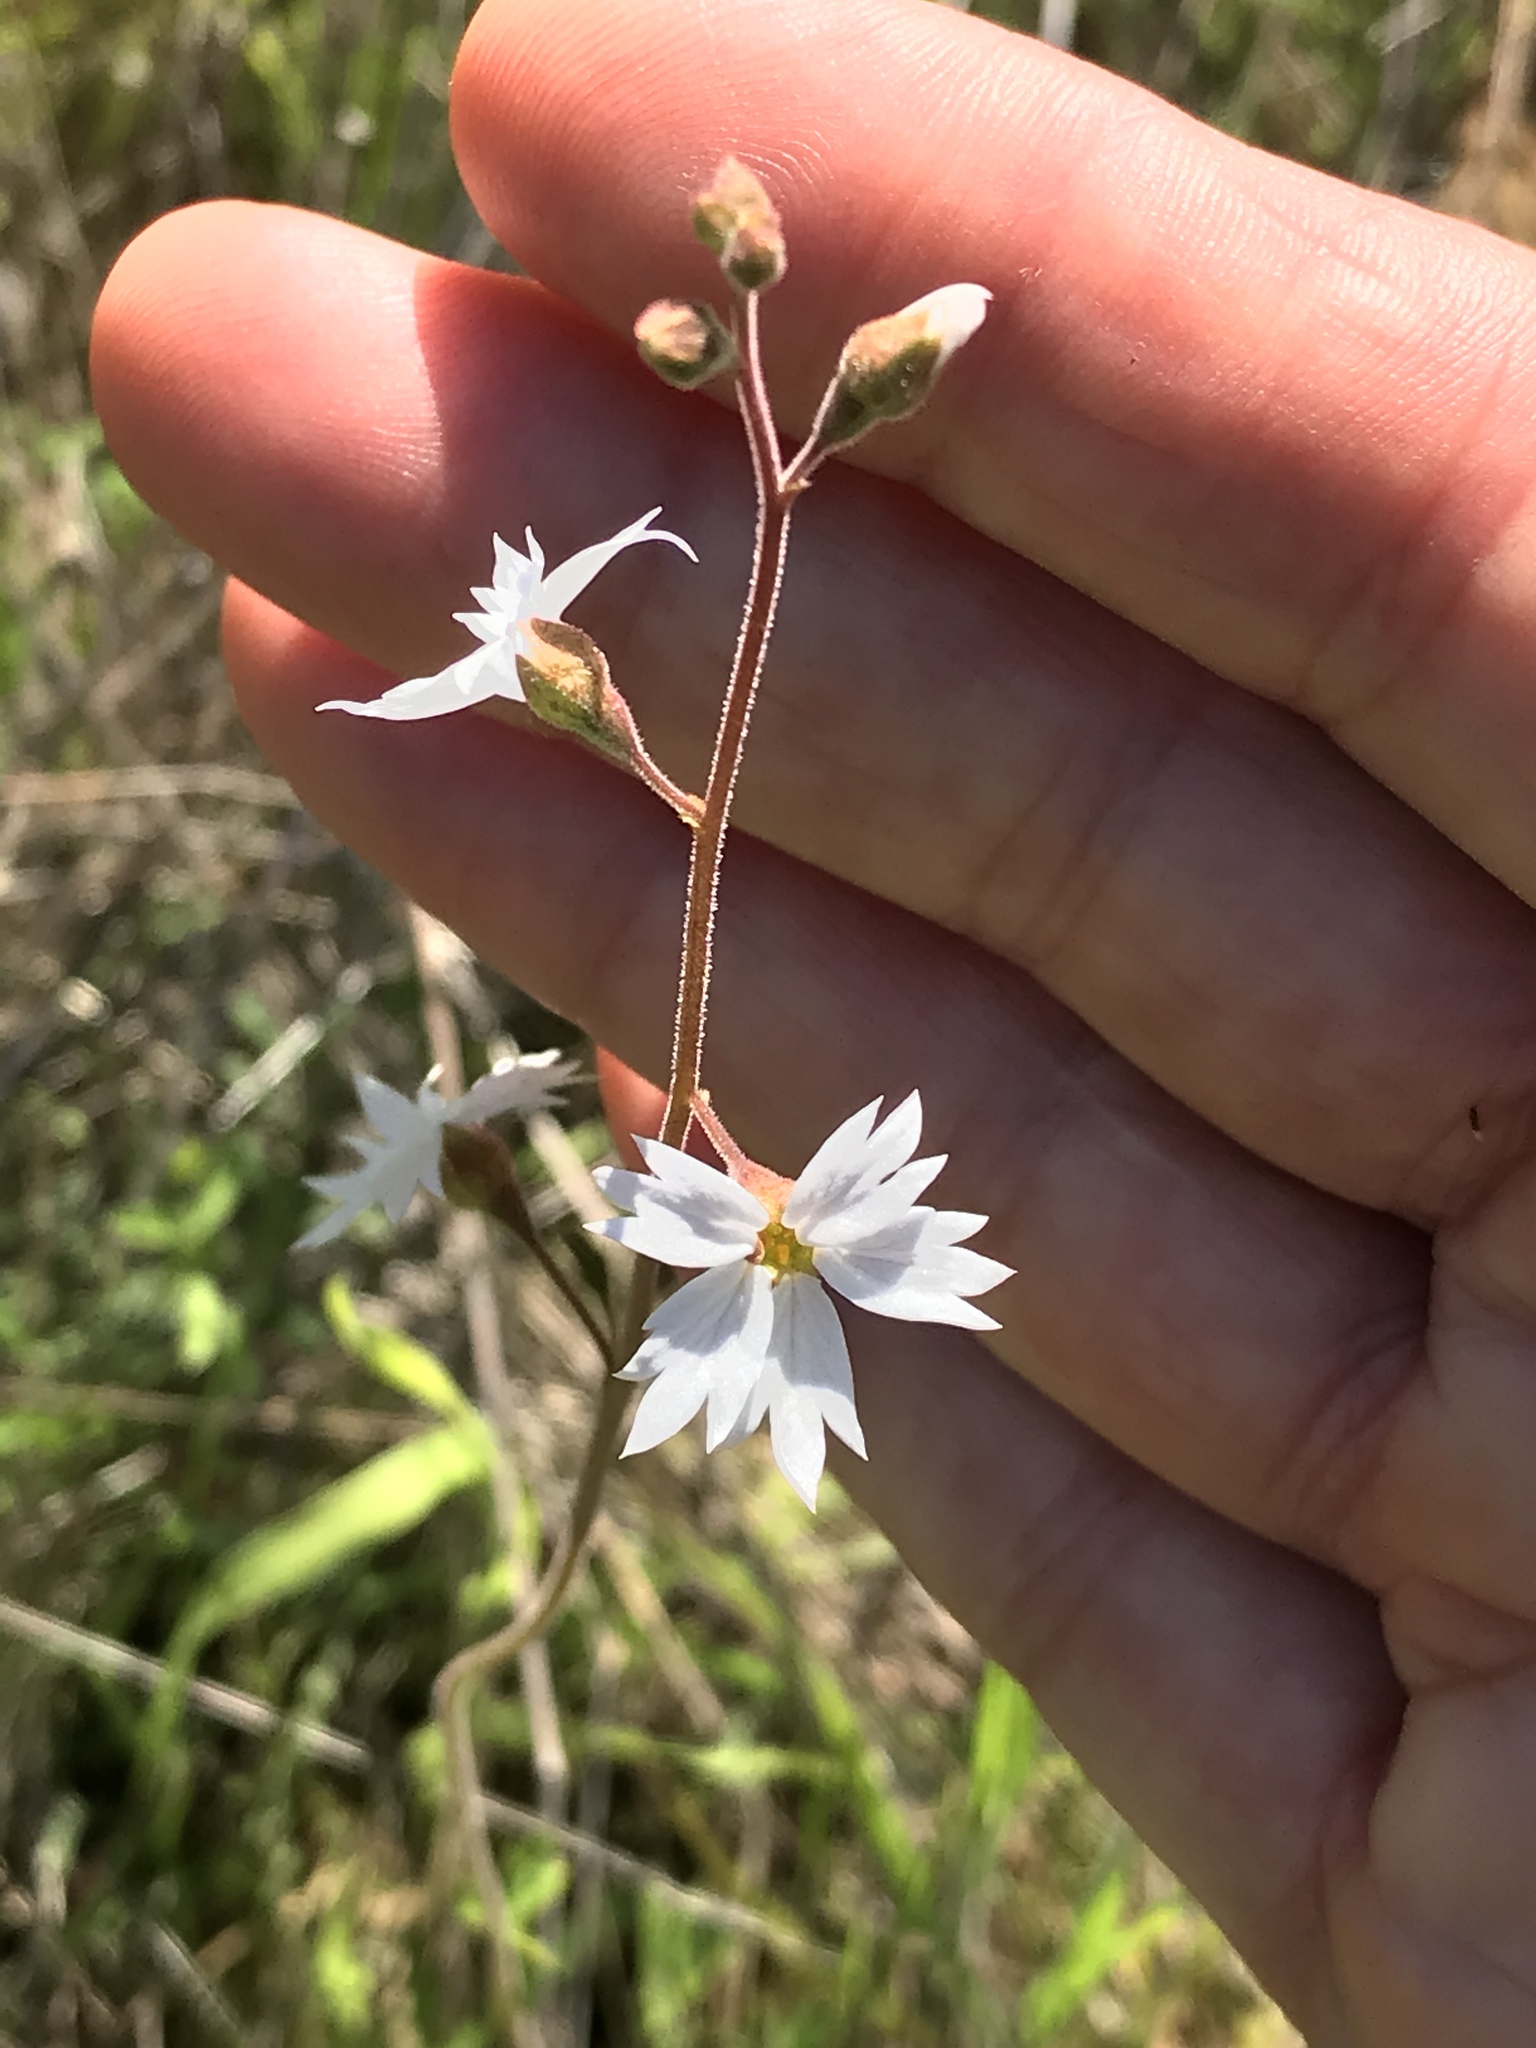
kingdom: Plantae
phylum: Tracheophyta
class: Magnoliopsida
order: Saxifragales
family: Saxifragaceae
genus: Lithophragma
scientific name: Lithophragma affine
